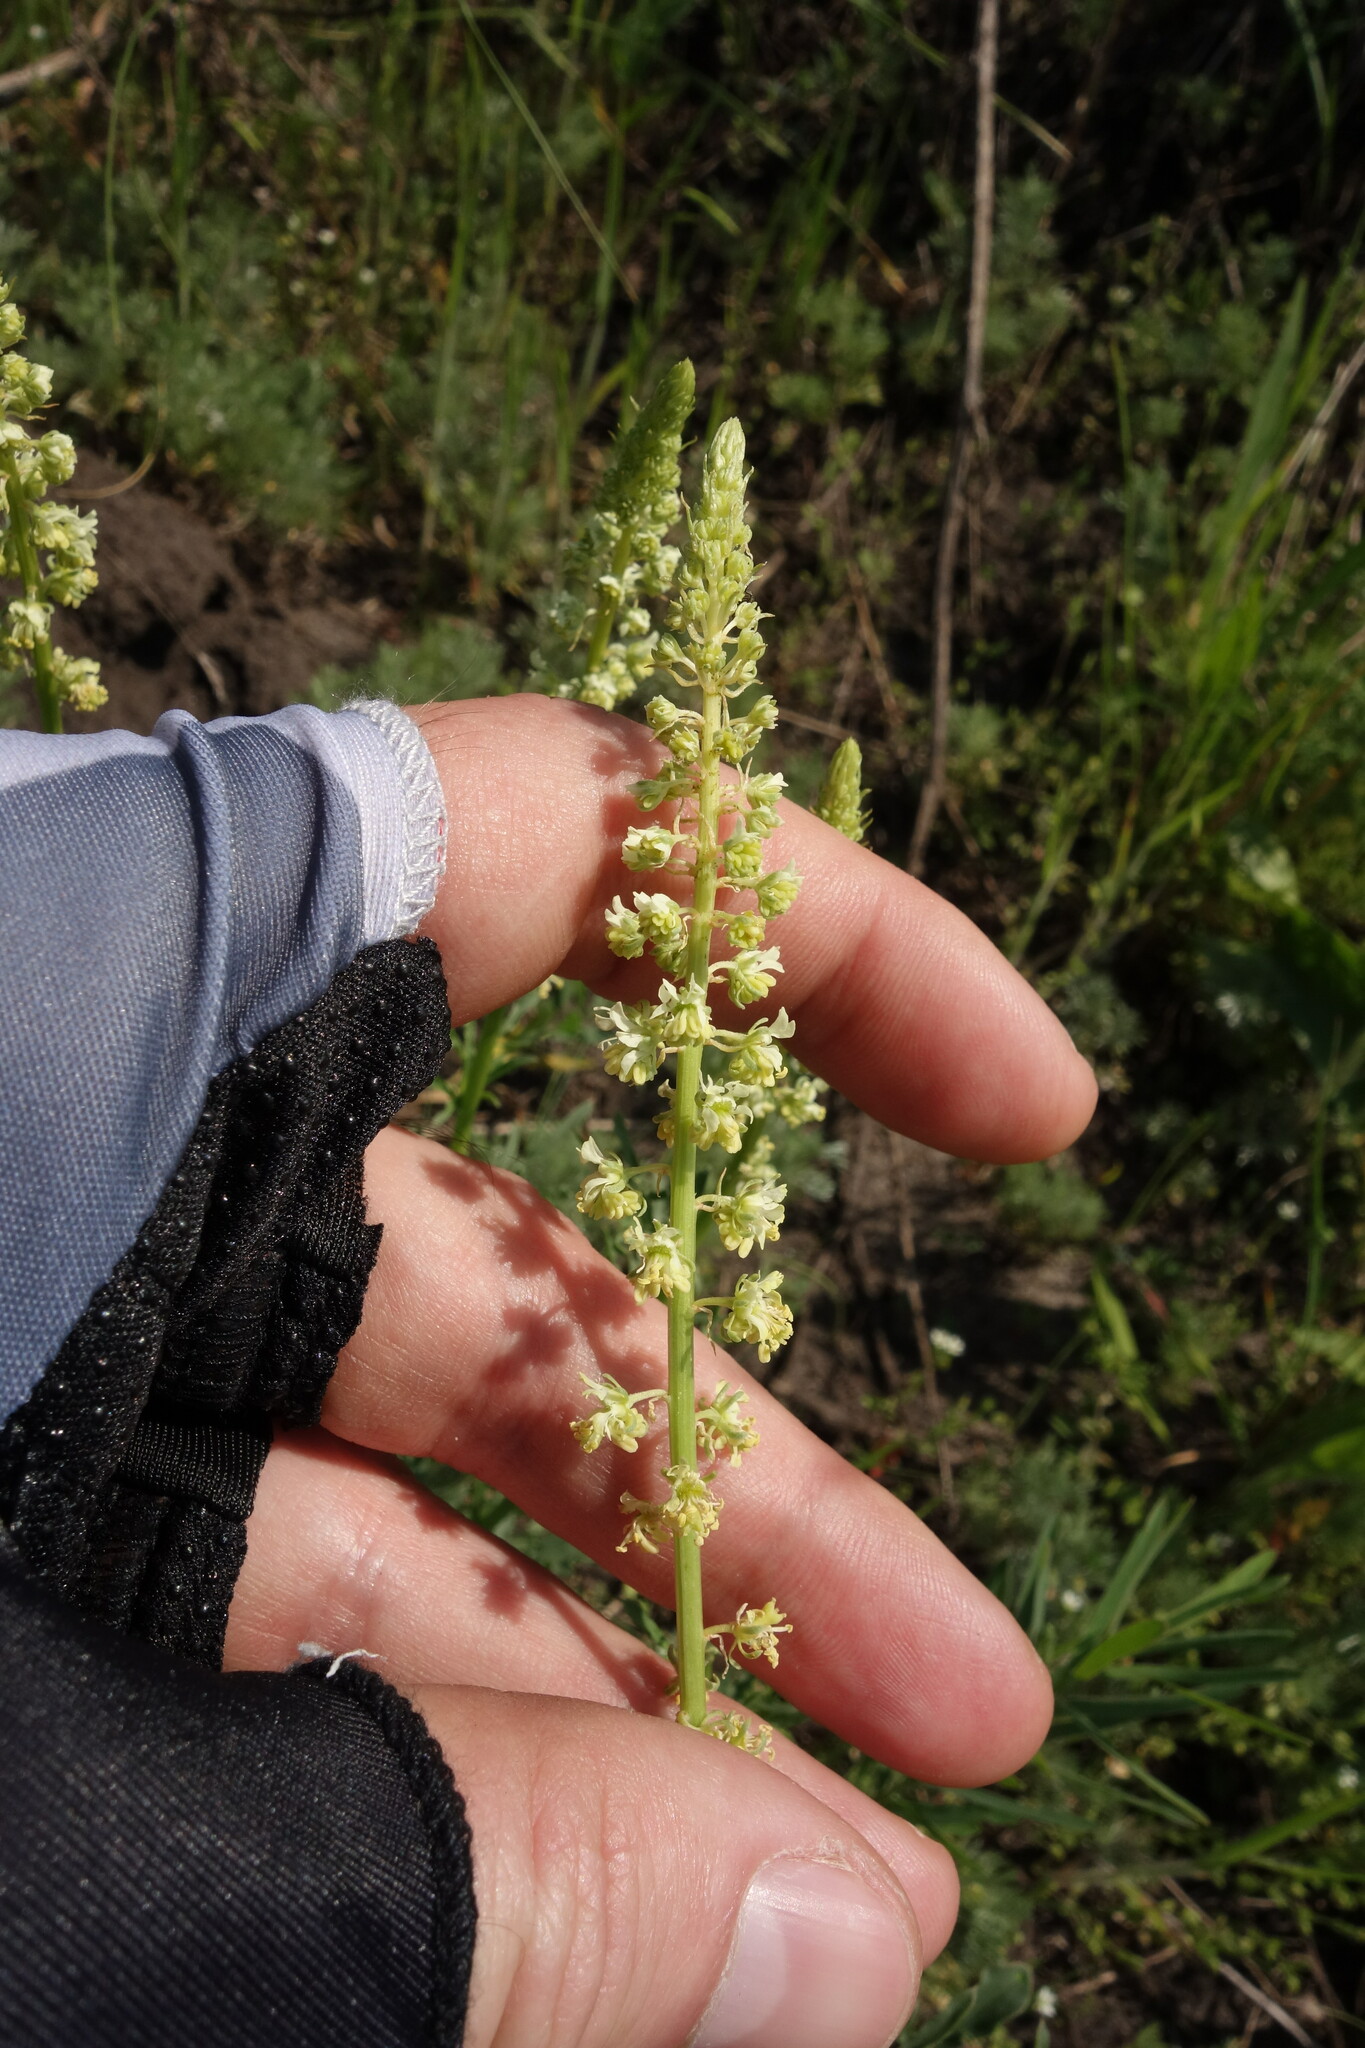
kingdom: Plantae
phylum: Tracheophyta
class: Magnoliopsida
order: Brassicales
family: Resedaceae
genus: Reseda
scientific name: Reseda lutea
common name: Wild mignonette
